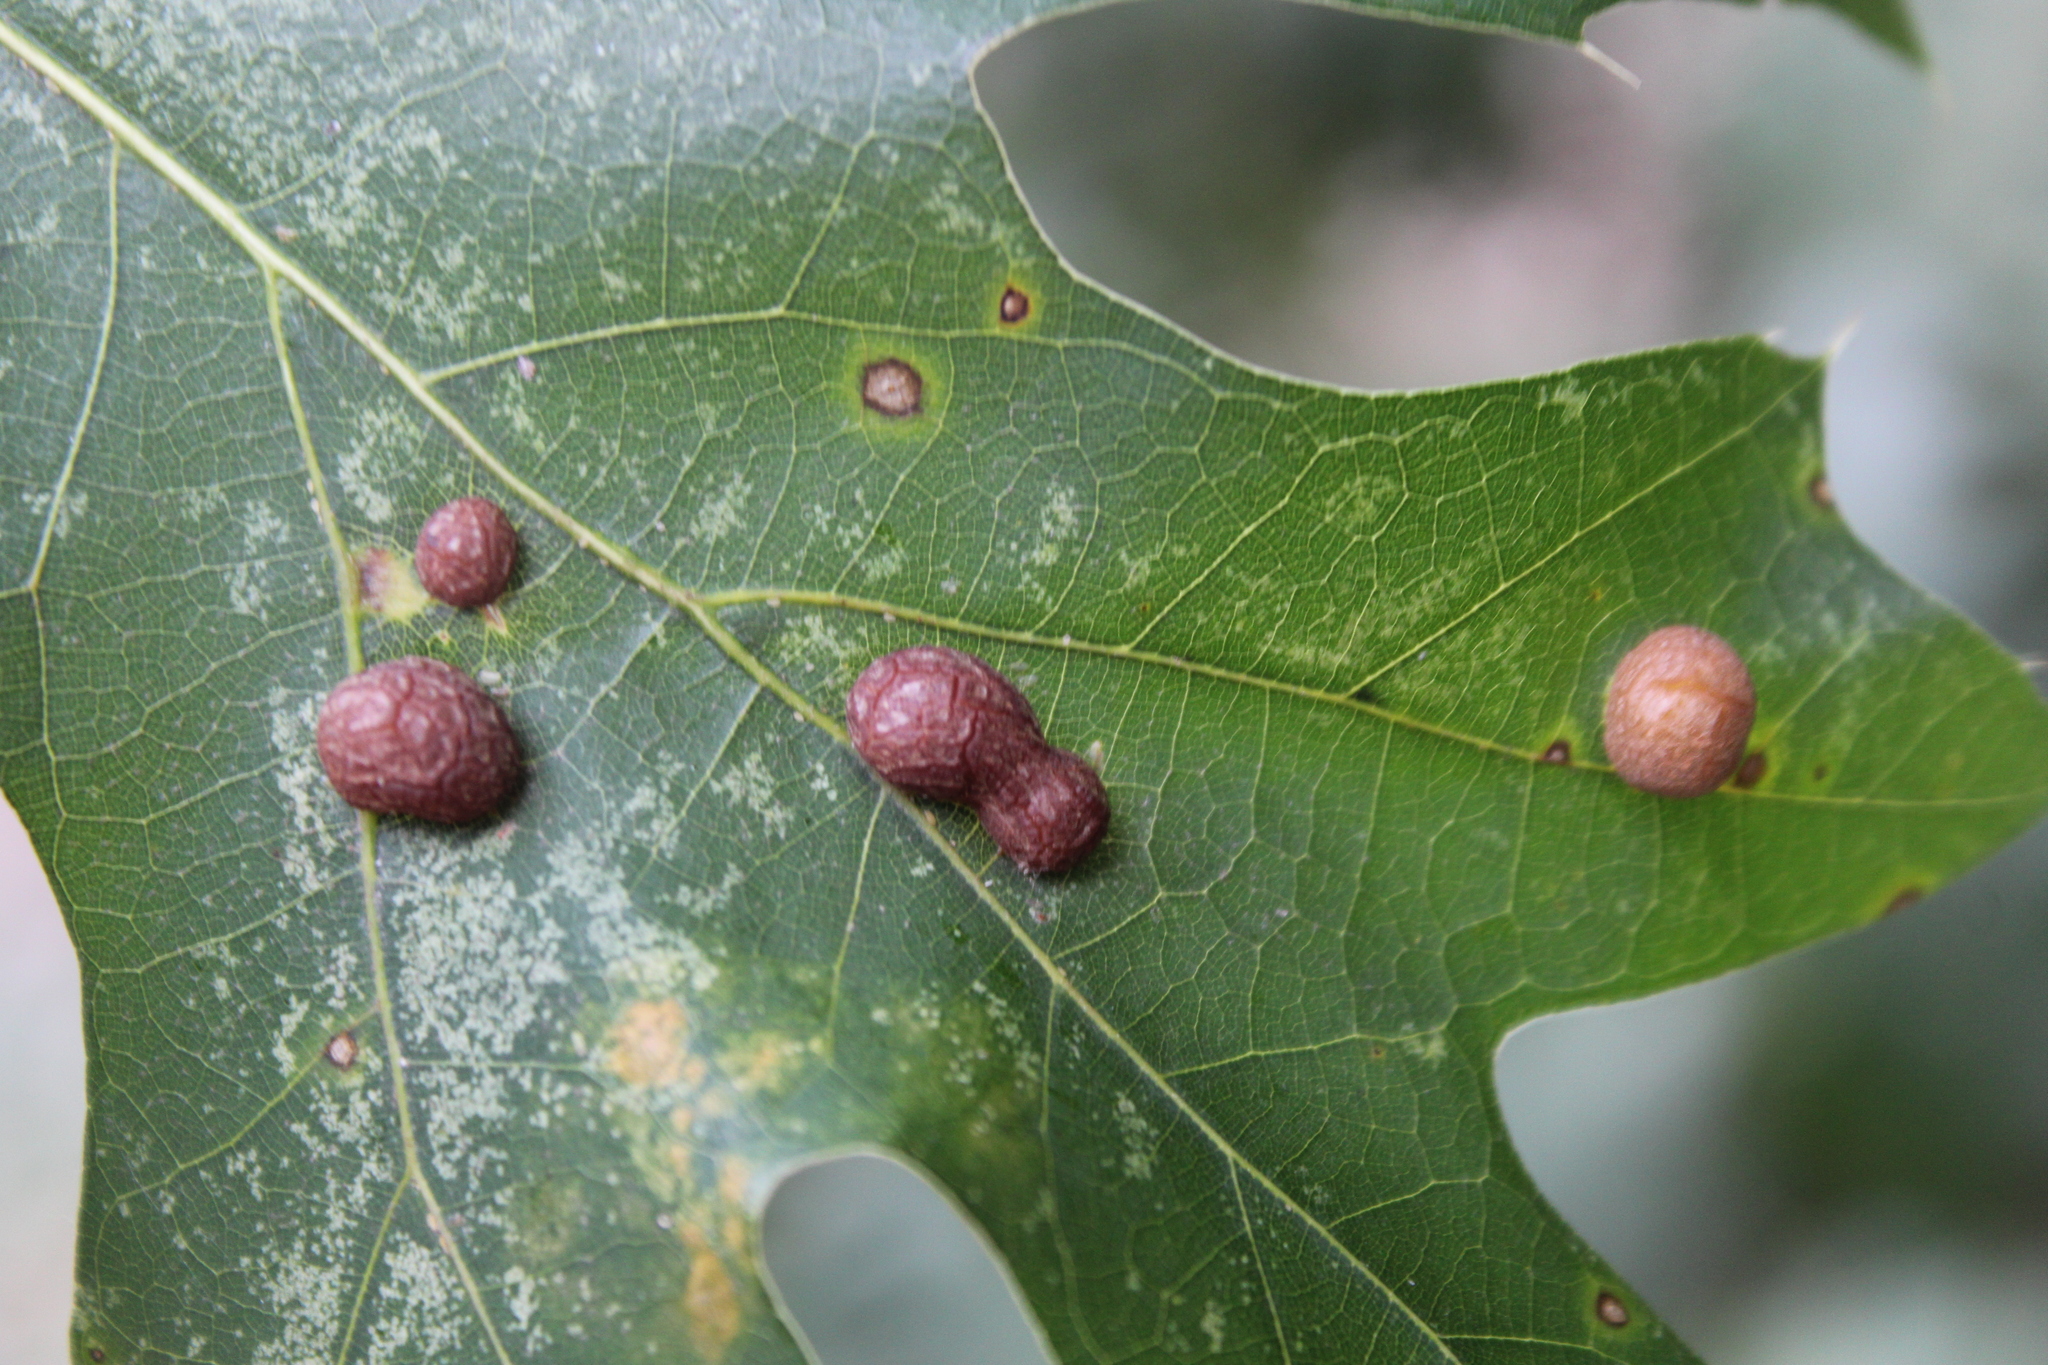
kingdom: Animalia
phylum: Arthropoda
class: Insecta
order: Diptera
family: Cecidomyiidae
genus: Polystepha
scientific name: Polystepha pilulae
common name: Oak leaf gall midge
